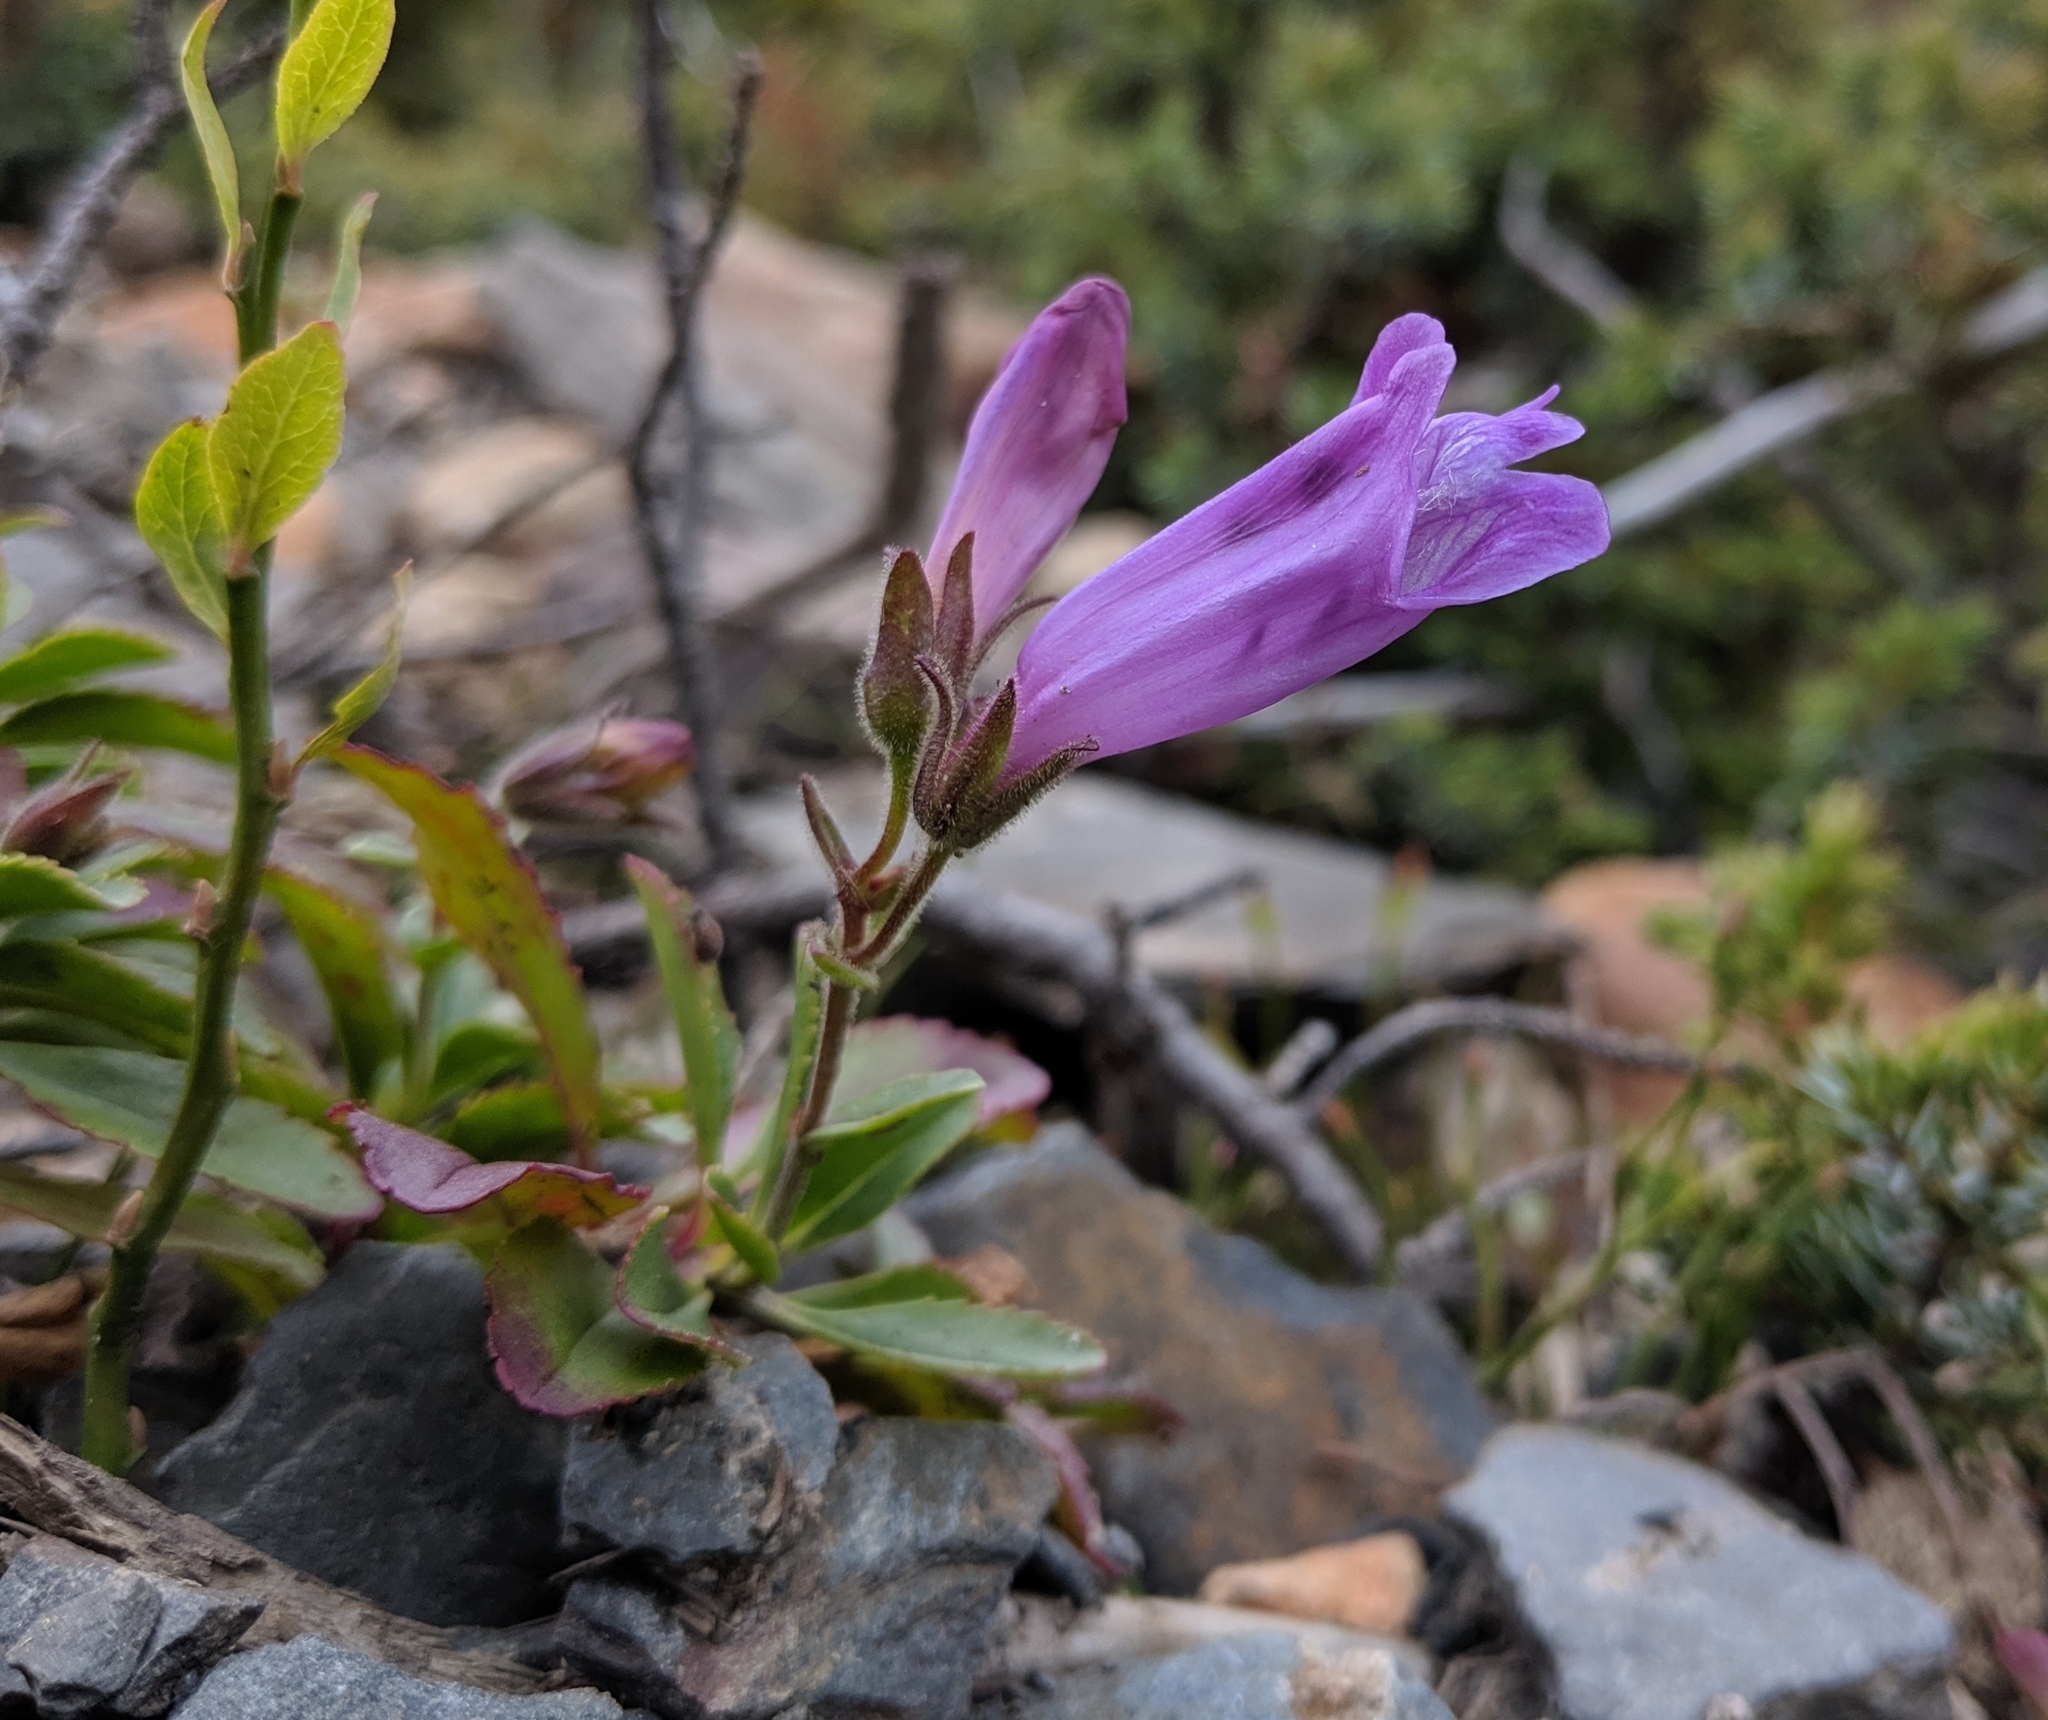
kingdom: Plantae
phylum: Tracheophyta
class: Magnoliopsida
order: Lamiales
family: Plantaginaceae
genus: Penstemon
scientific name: Penstemon ellipticus
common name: Alpine beardtongue
